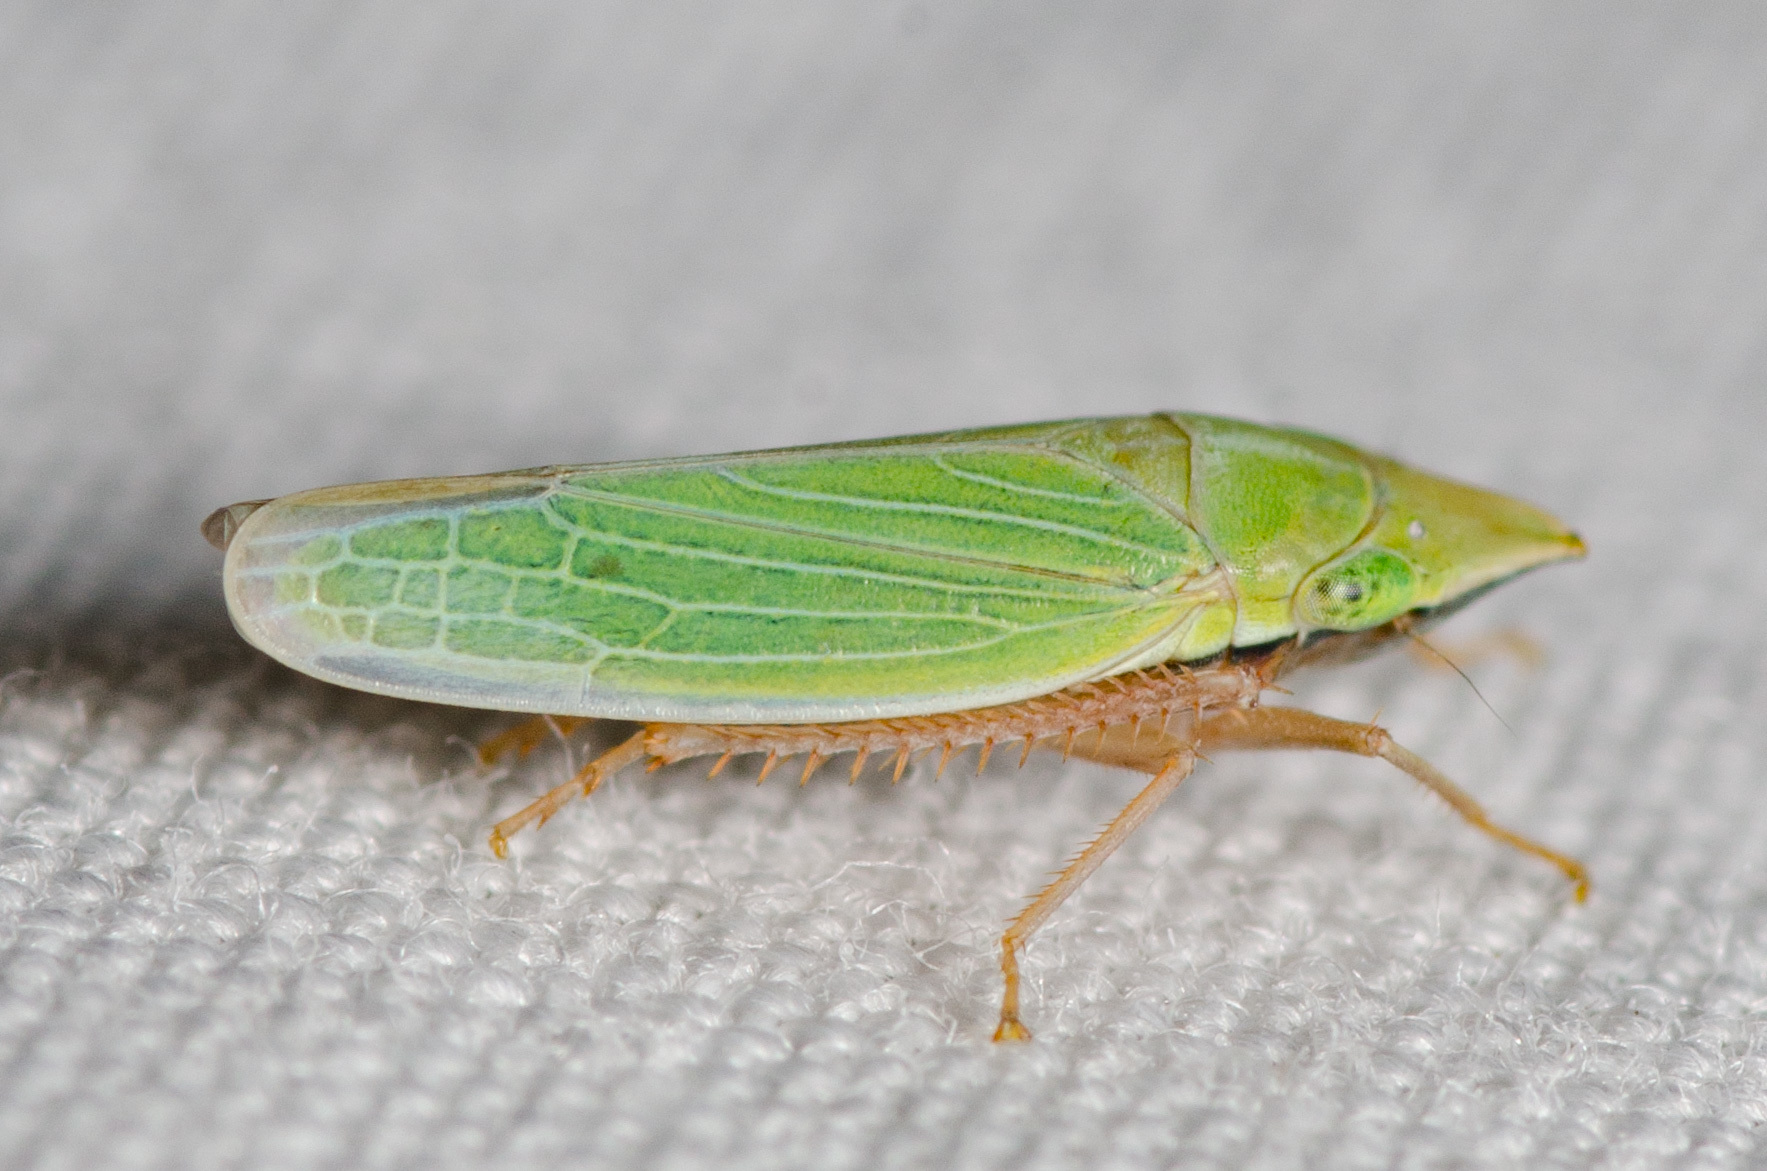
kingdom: Animalia
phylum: Arthropoda
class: Insecta
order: Hemiptera
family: Cicadellidae
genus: Draeculacephala
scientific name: Draeculacephala antica
